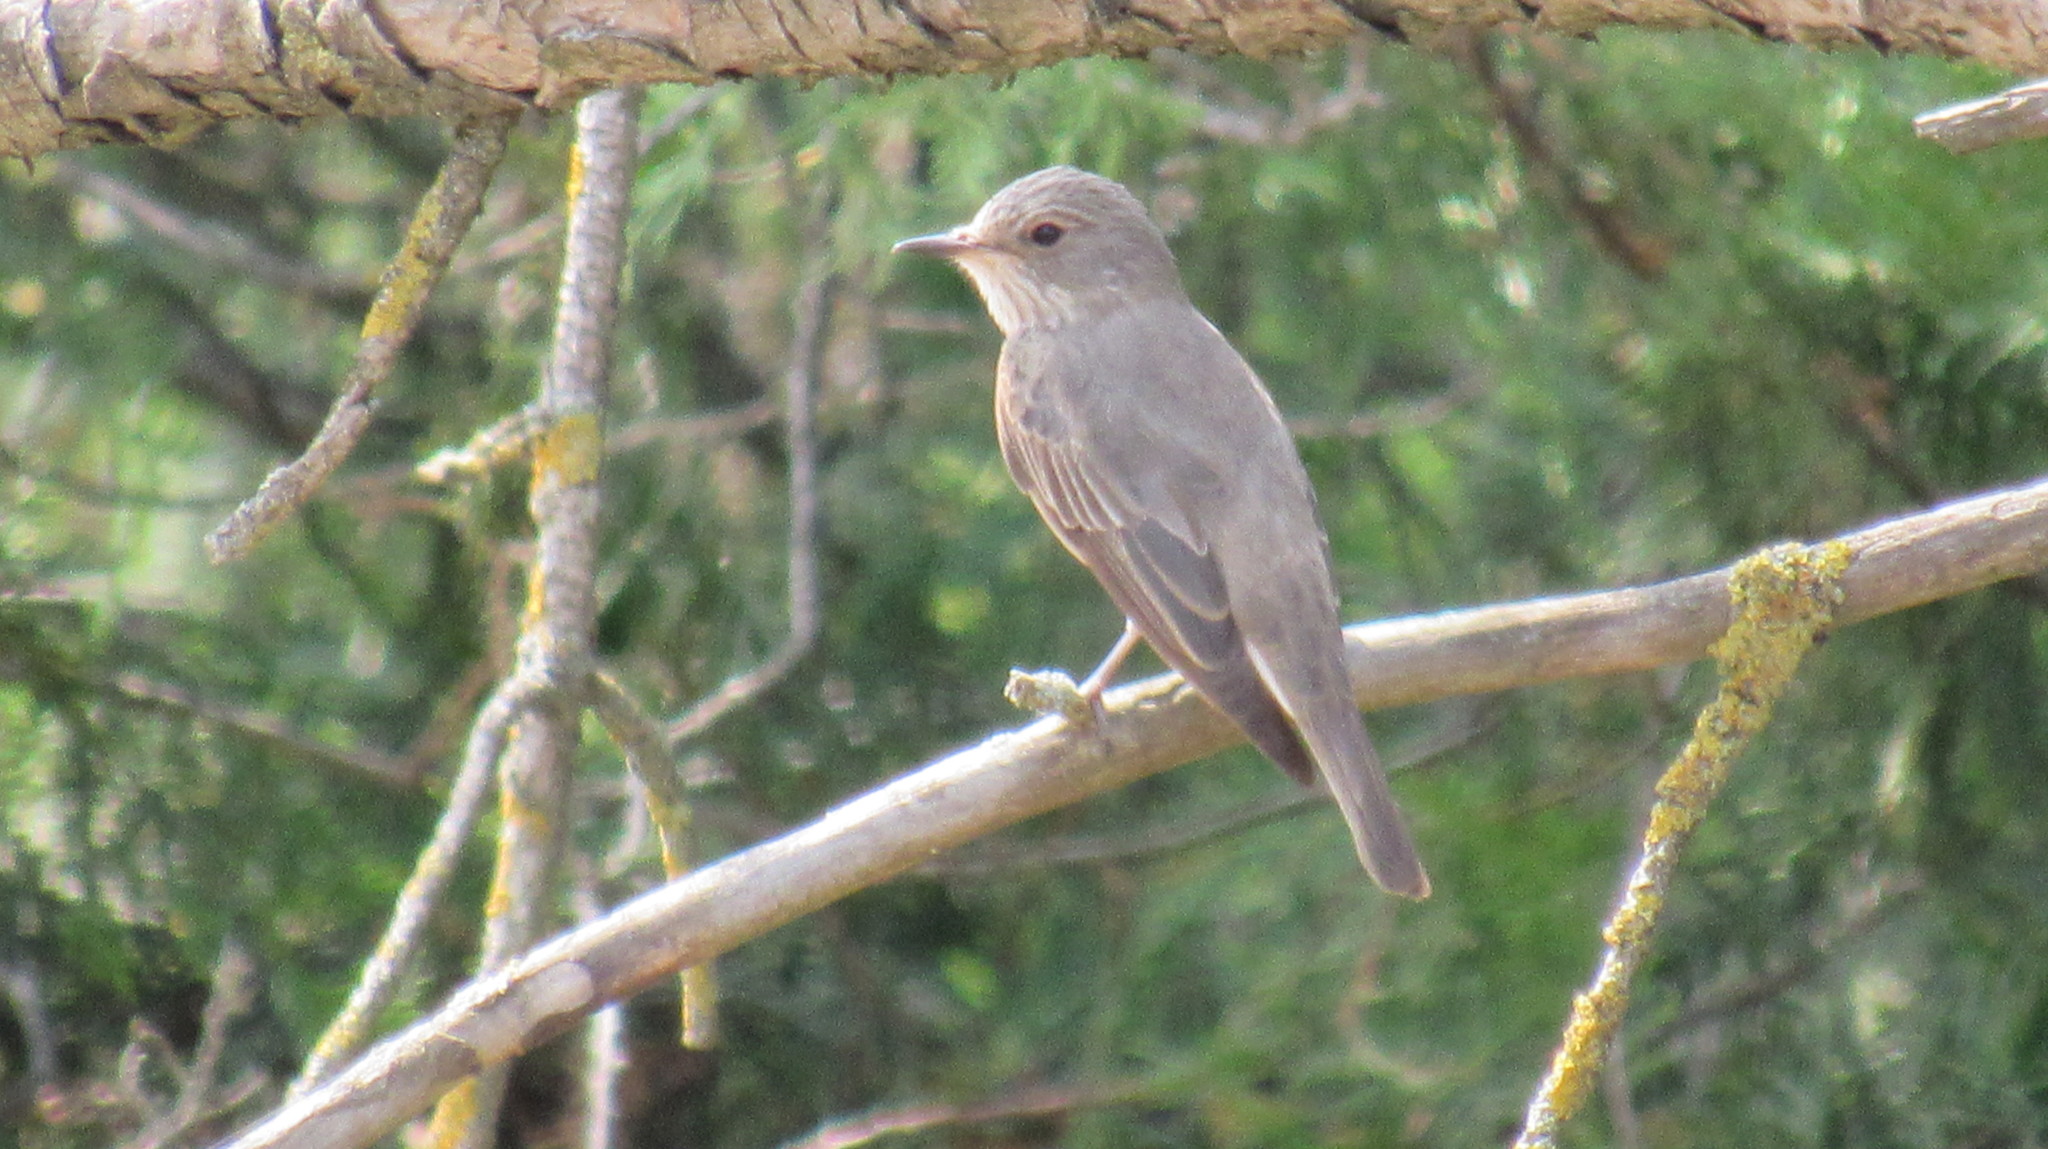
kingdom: Animalia
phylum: Chordata
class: Aves
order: Passeriformes
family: Muscicapidae
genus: Muscicapa
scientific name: Muscicapa striata
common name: Spotted flycatcher
